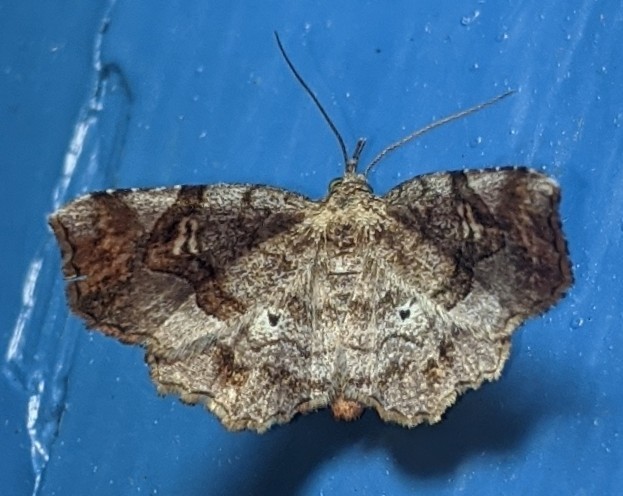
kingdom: Animalia
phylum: Arthropoda
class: Insecta
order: Lepidoptera
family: Erebidae
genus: Pangrapta
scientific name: Pangrapta decoralis
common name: Decorated owlet
